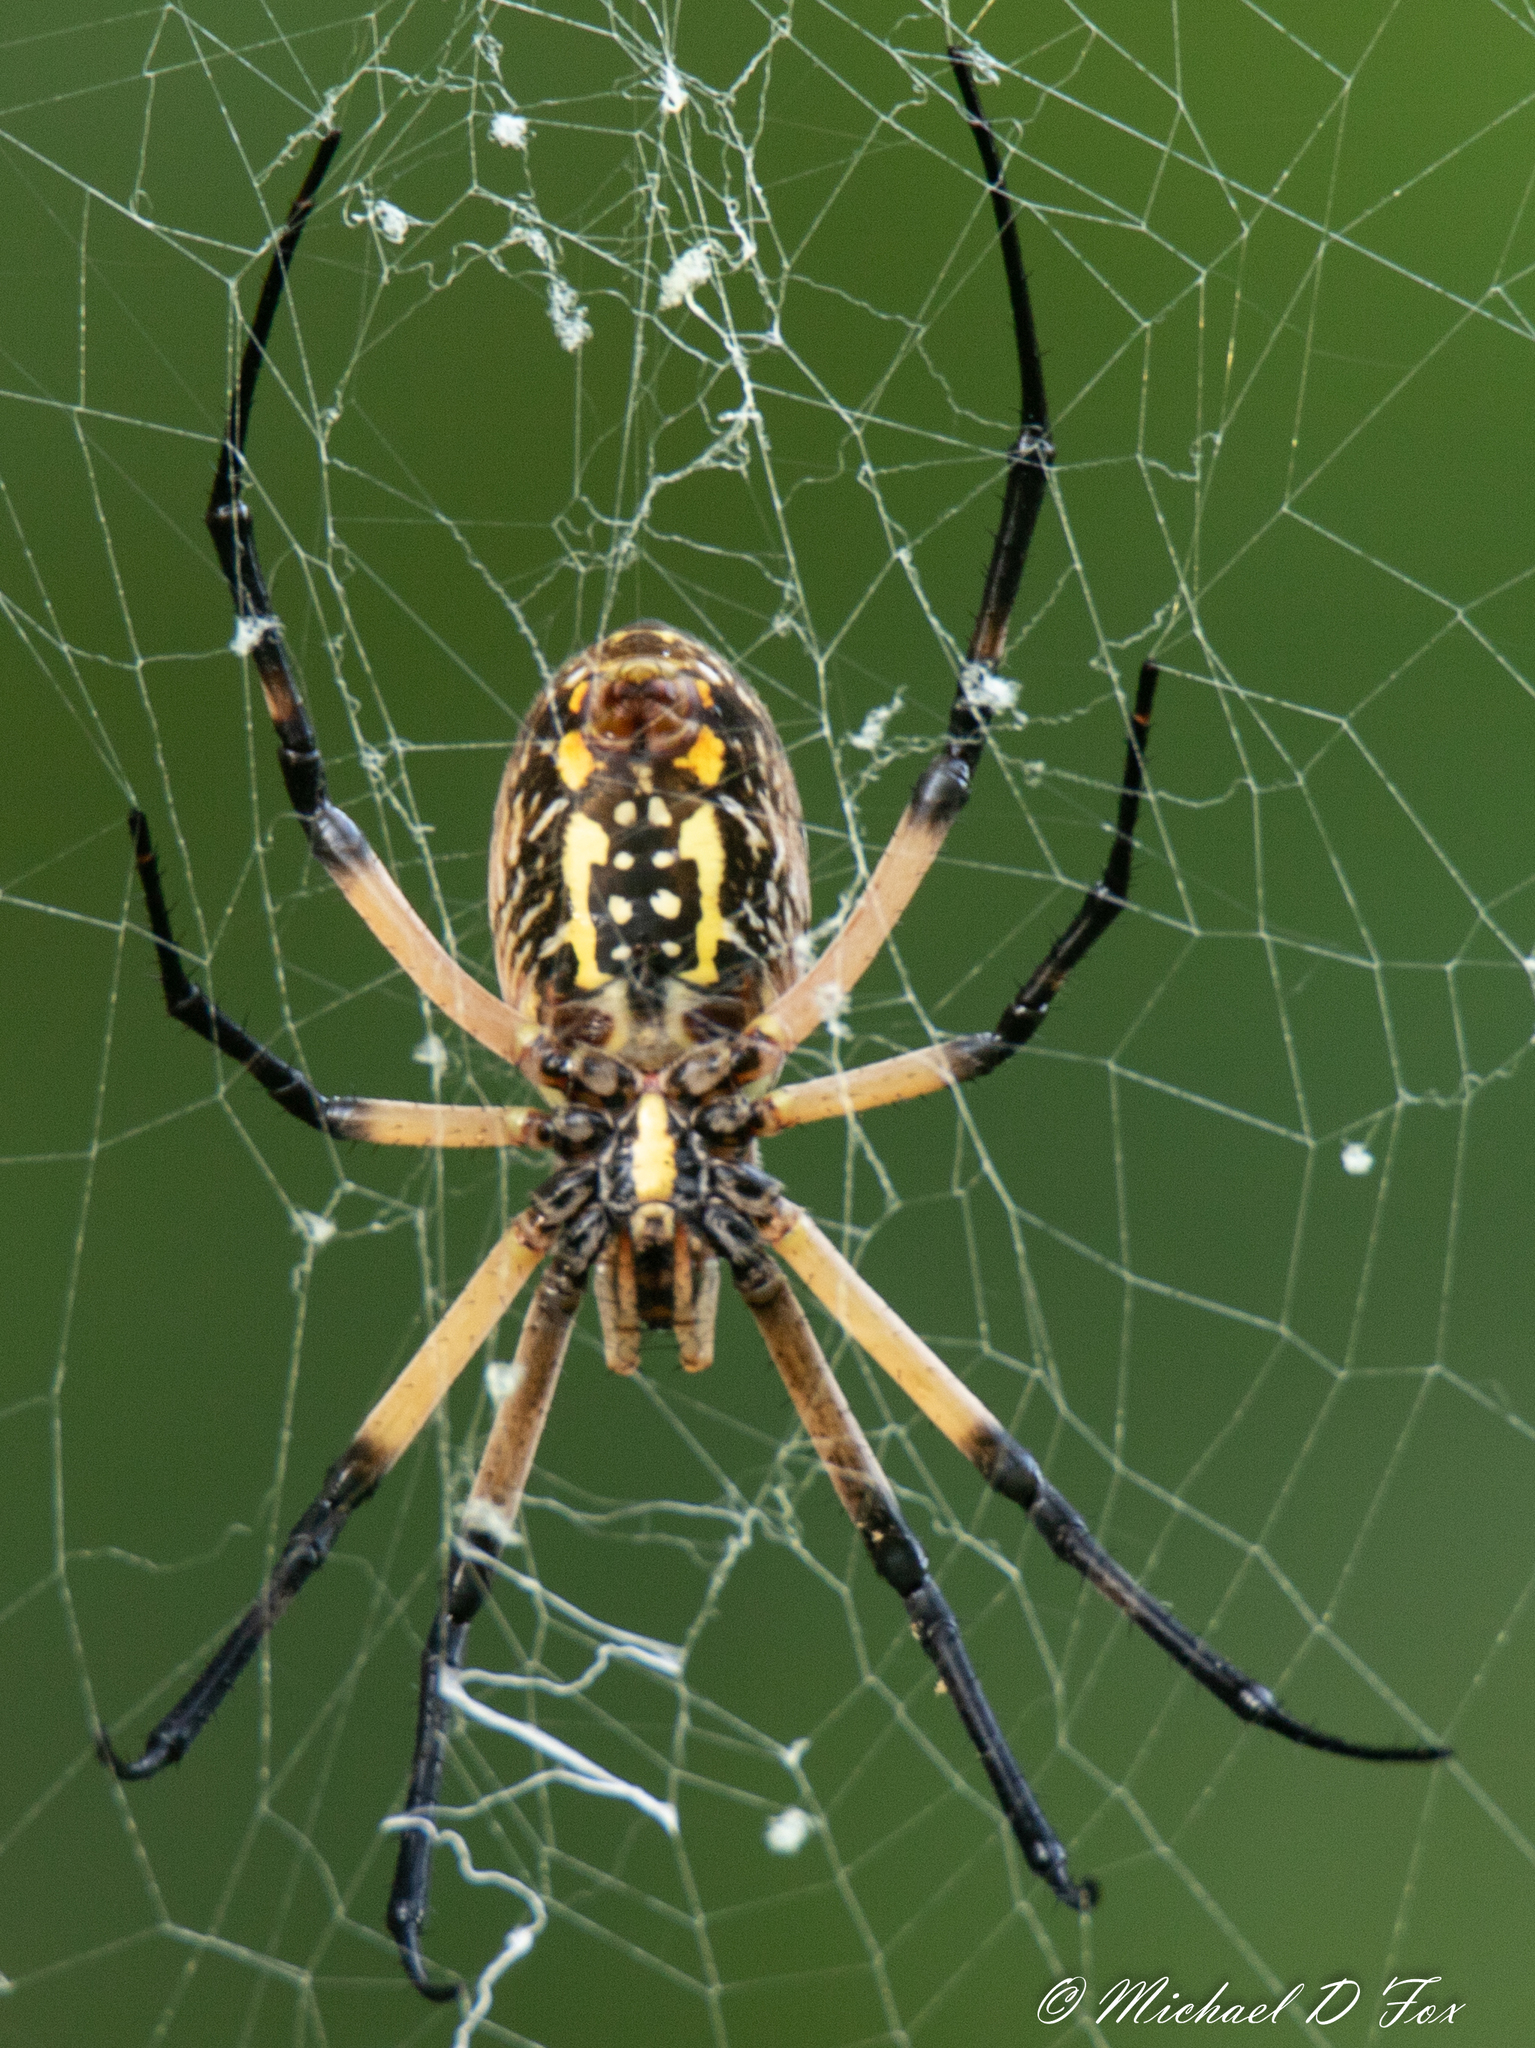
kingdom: Animalia
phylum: Arthropoda
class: Arachnida
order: Araneae
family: Araneidae
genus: Argiope
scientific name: Argiope aurantia
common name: Orb weavers
